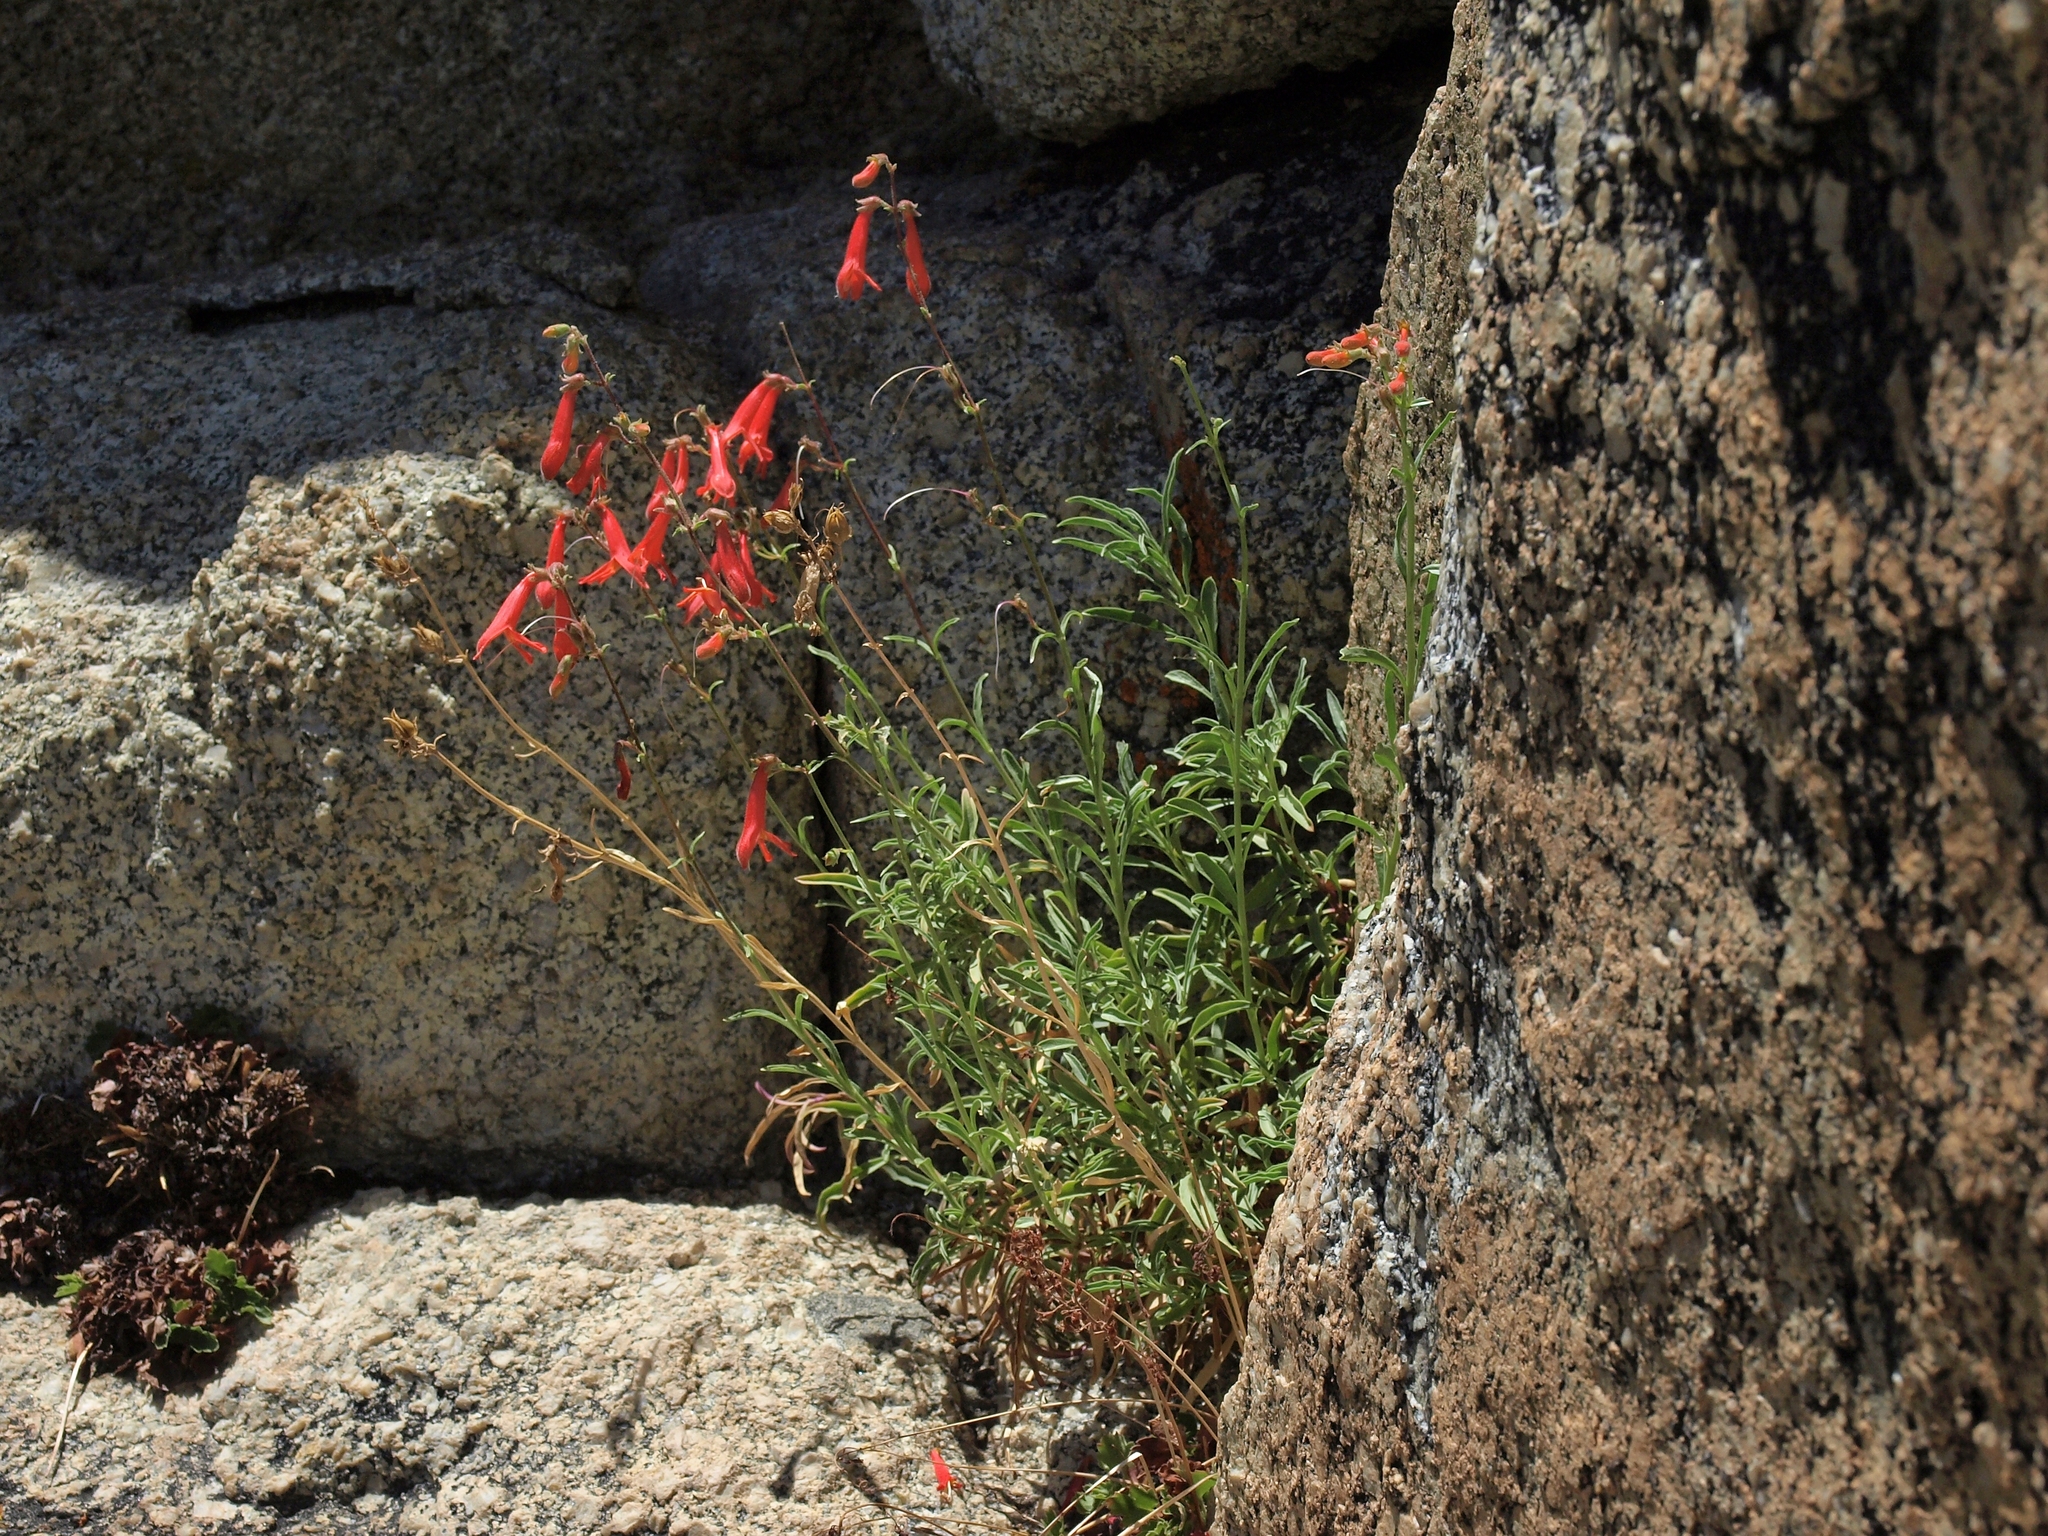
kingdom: Plantae
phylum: Tracheophyta
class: Magnoliopsida
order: Lamiales
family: Plantaginaceae
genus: Penstemon
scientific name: Penstemon rostriflorus
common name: Bridges's penstemon
